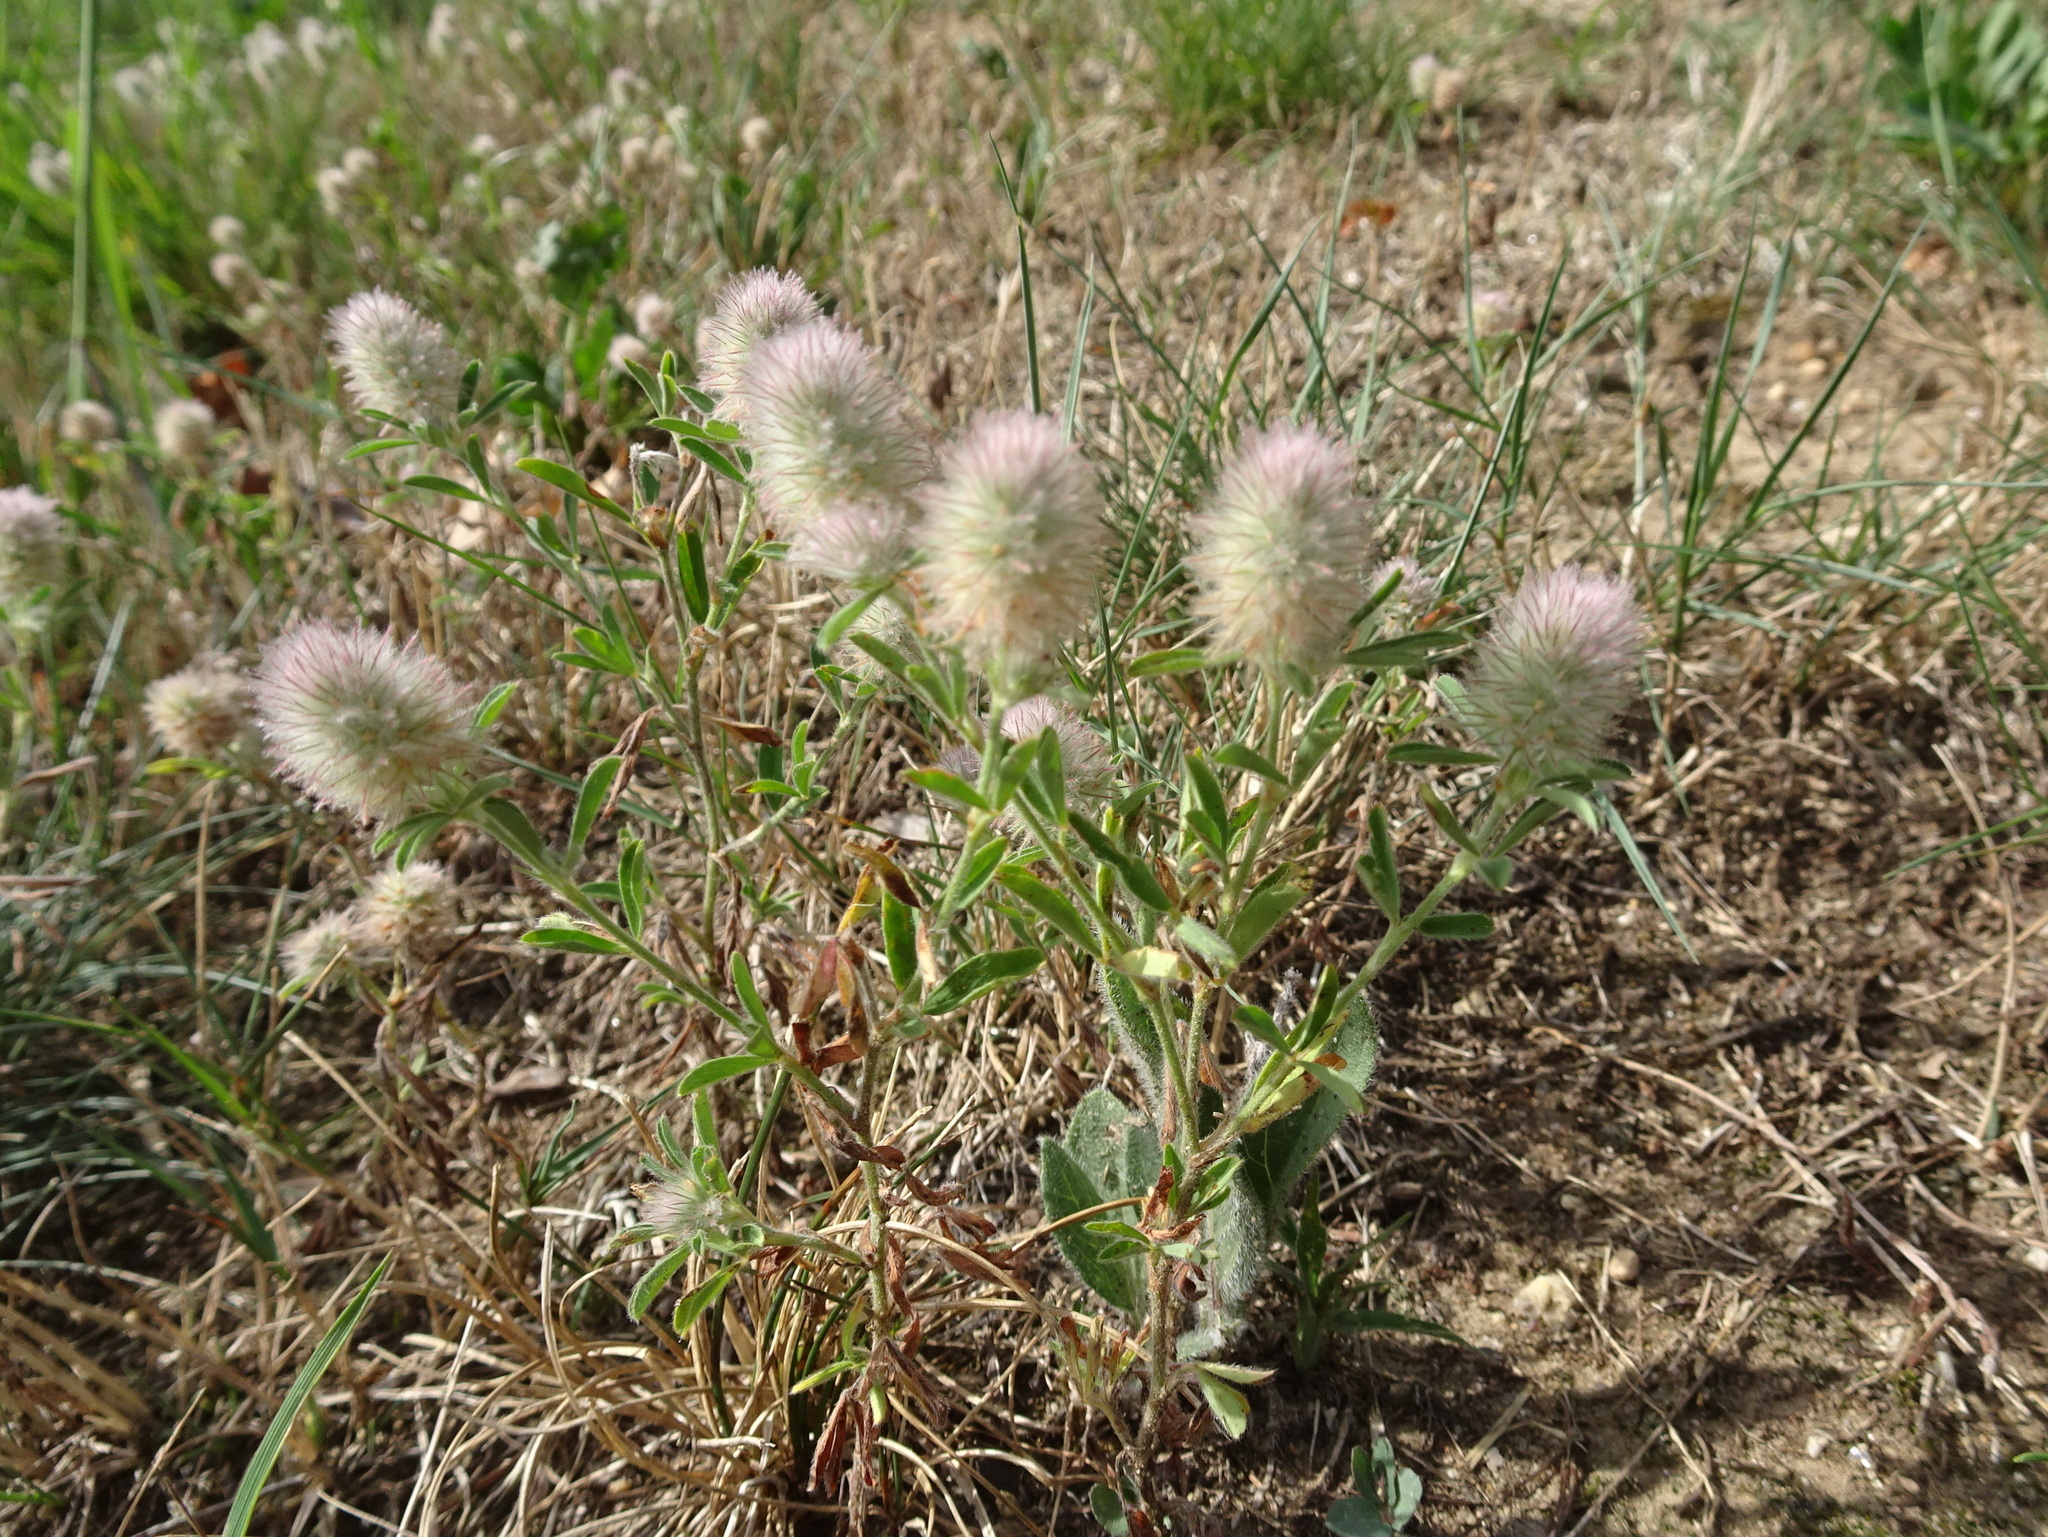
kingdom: Plantae
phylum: Tracheophyta
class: Magnoliopsida
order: Fabales
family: Fabaceae
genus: Trifolium
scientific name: Trifolium arvense
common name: Hare's-foot clover
